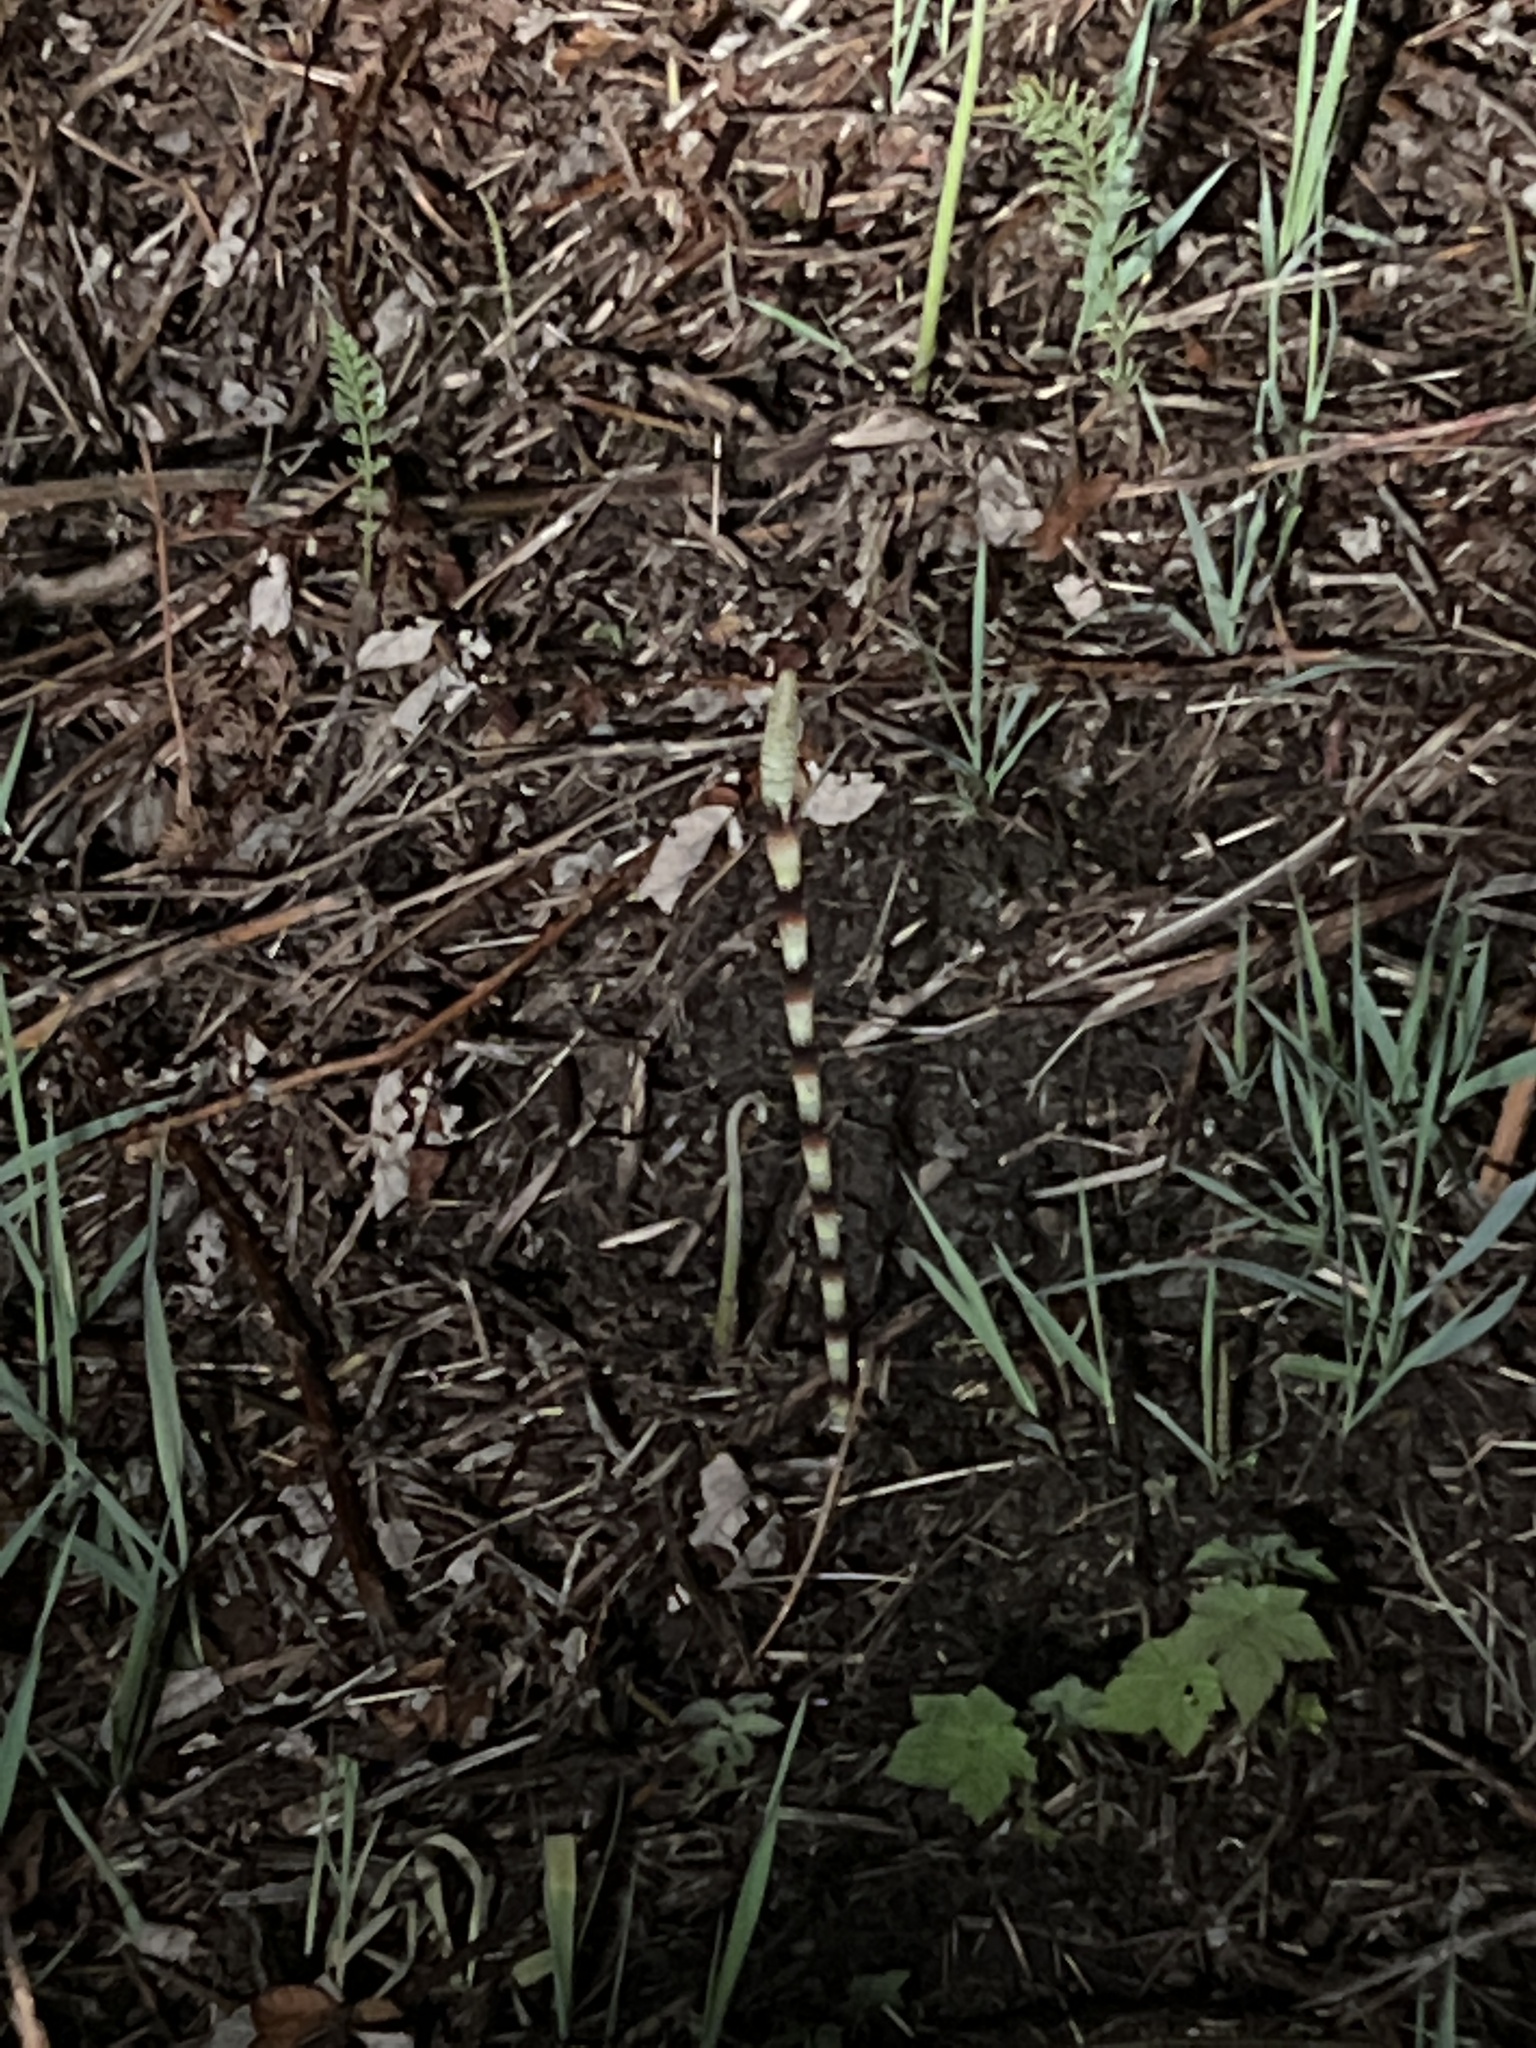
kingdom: Plantae
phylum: Tracheophyta
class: Polypodiopsida
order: Equisetales
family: Equisetaceae
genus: Equisetum
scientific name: Equisetum braunii
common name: Braun's horsetail
